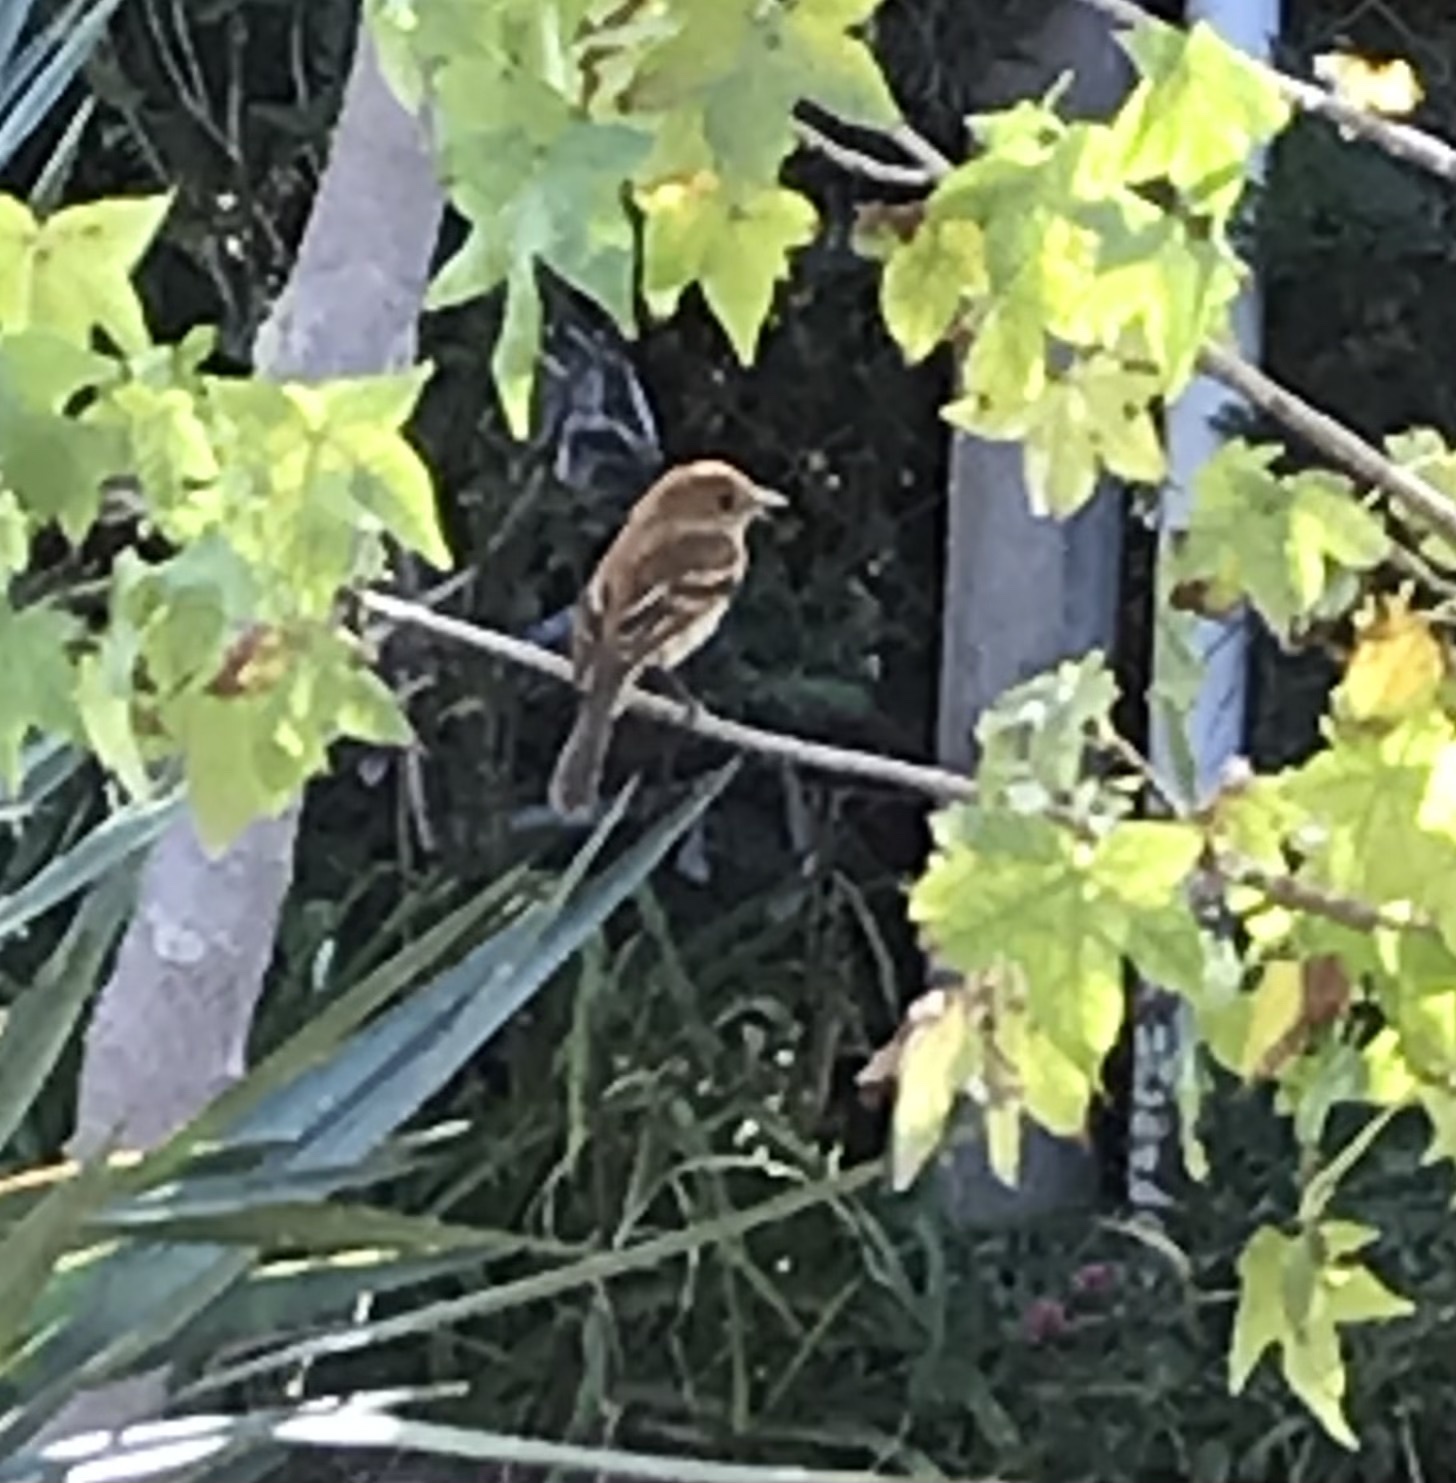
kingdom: Animalia
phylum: Chordata
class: Aves
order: Passeriformes
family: Tyrannidae
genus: Myiophobus
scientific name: Myiophobus fasciatus
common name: Bran-colored flycatcher
